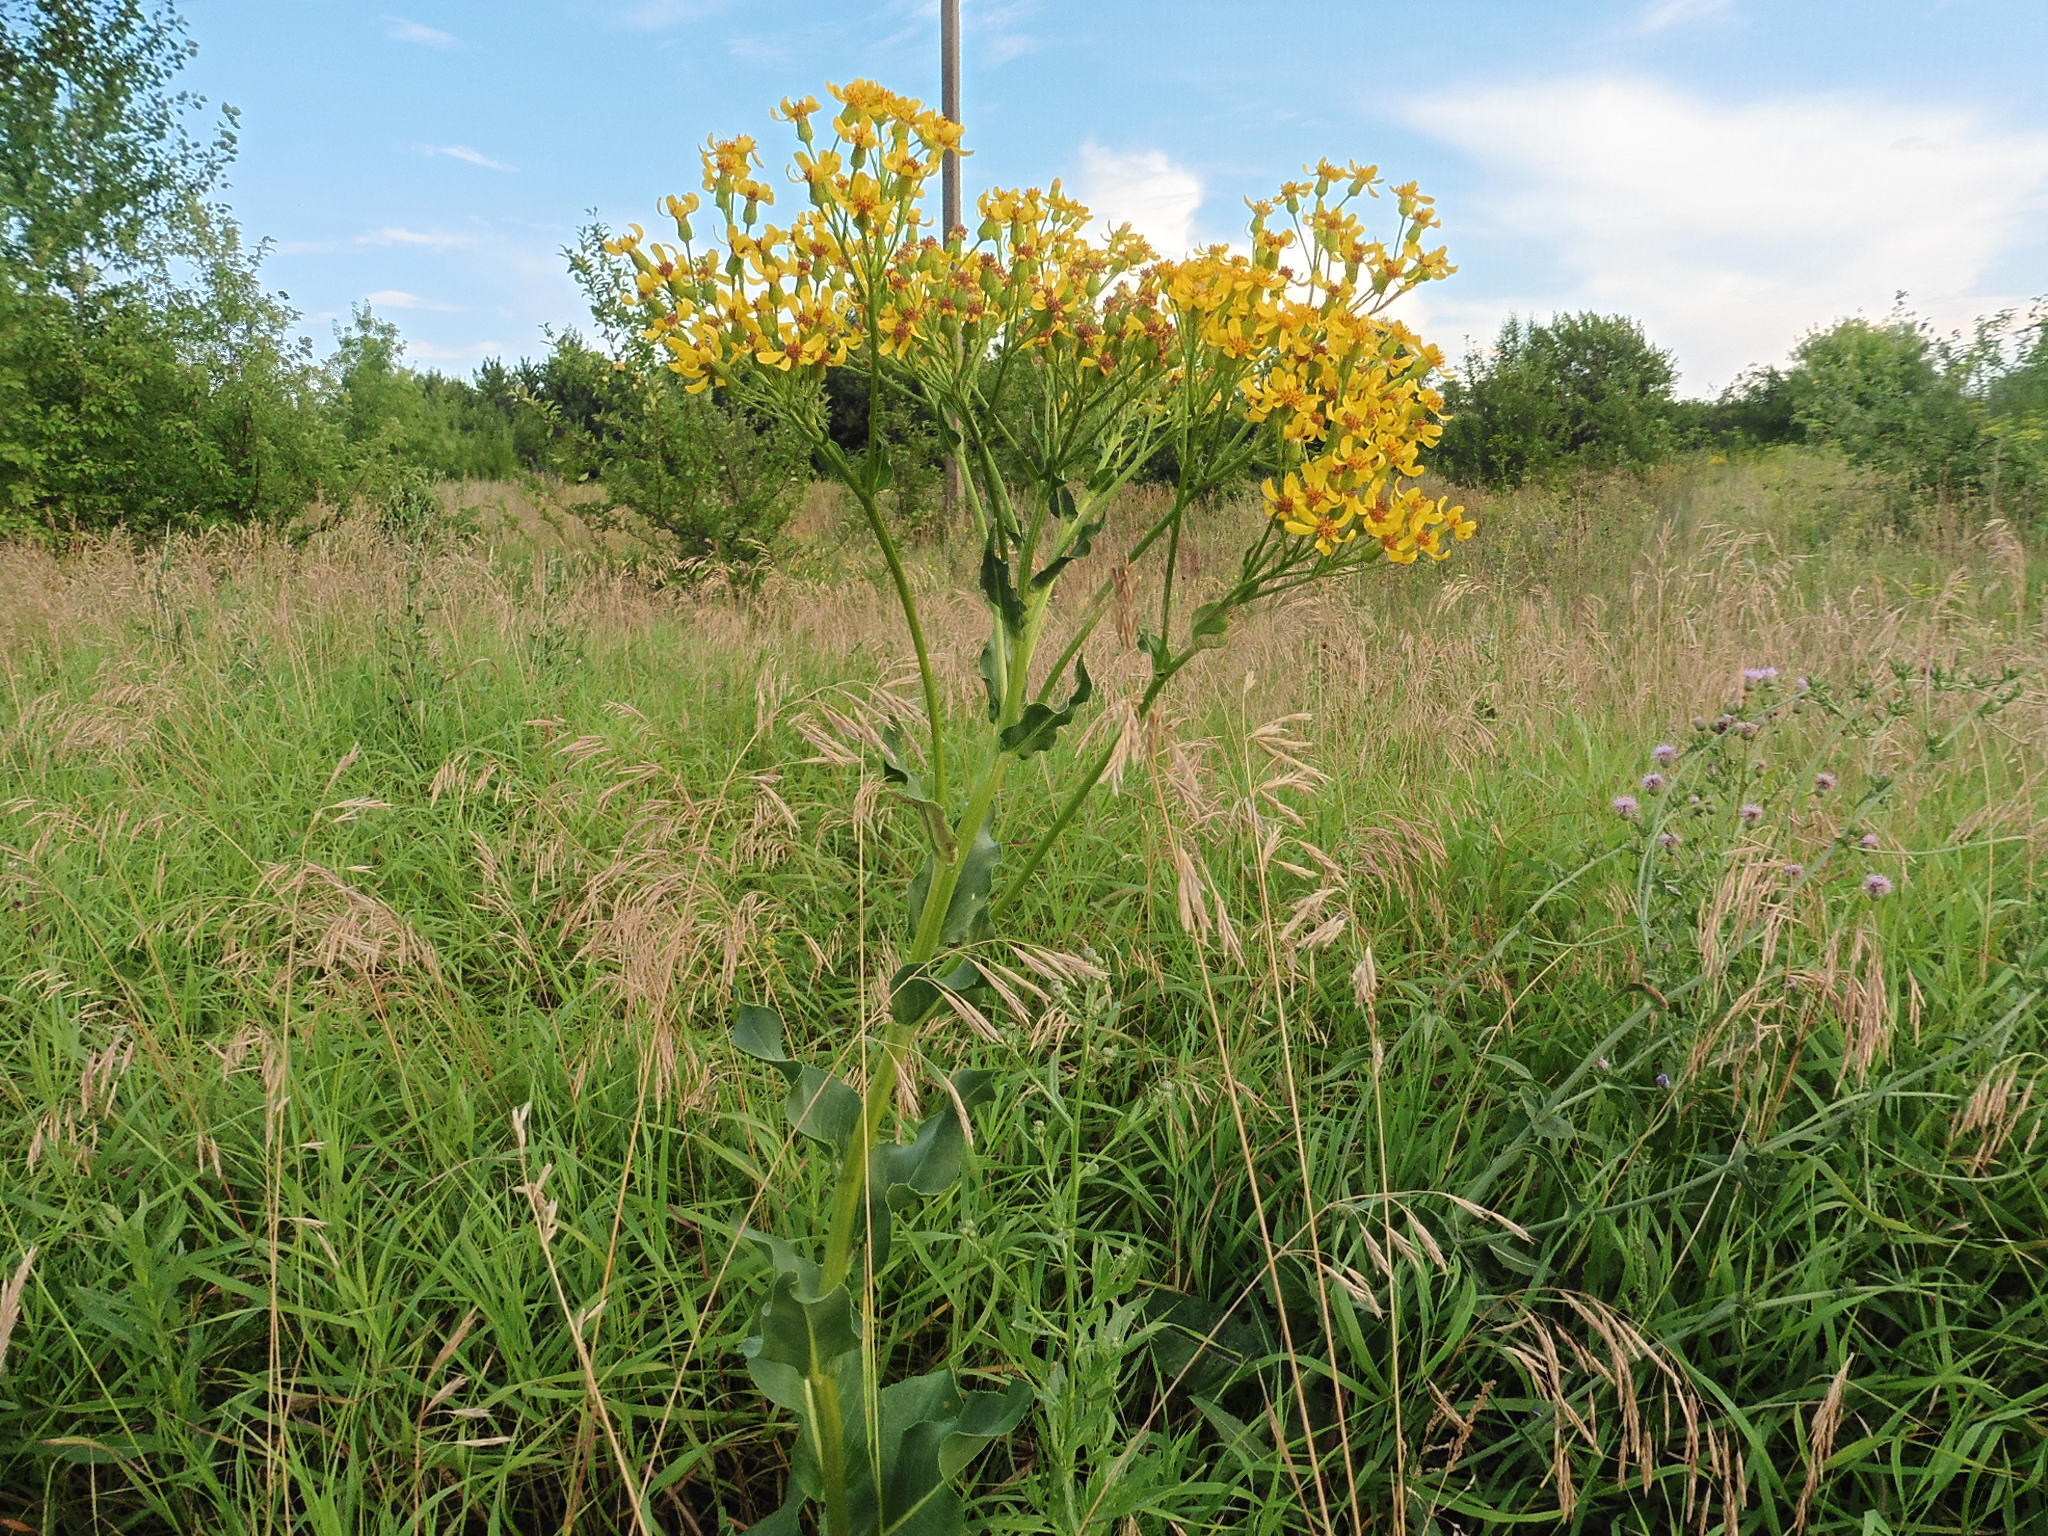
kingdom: Plantae
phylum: Tracheophyta
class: Magnoliopsida
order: Asterales
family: Asteraceae
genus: Senecio
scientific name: Senecio doria
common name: Golden ragwort
